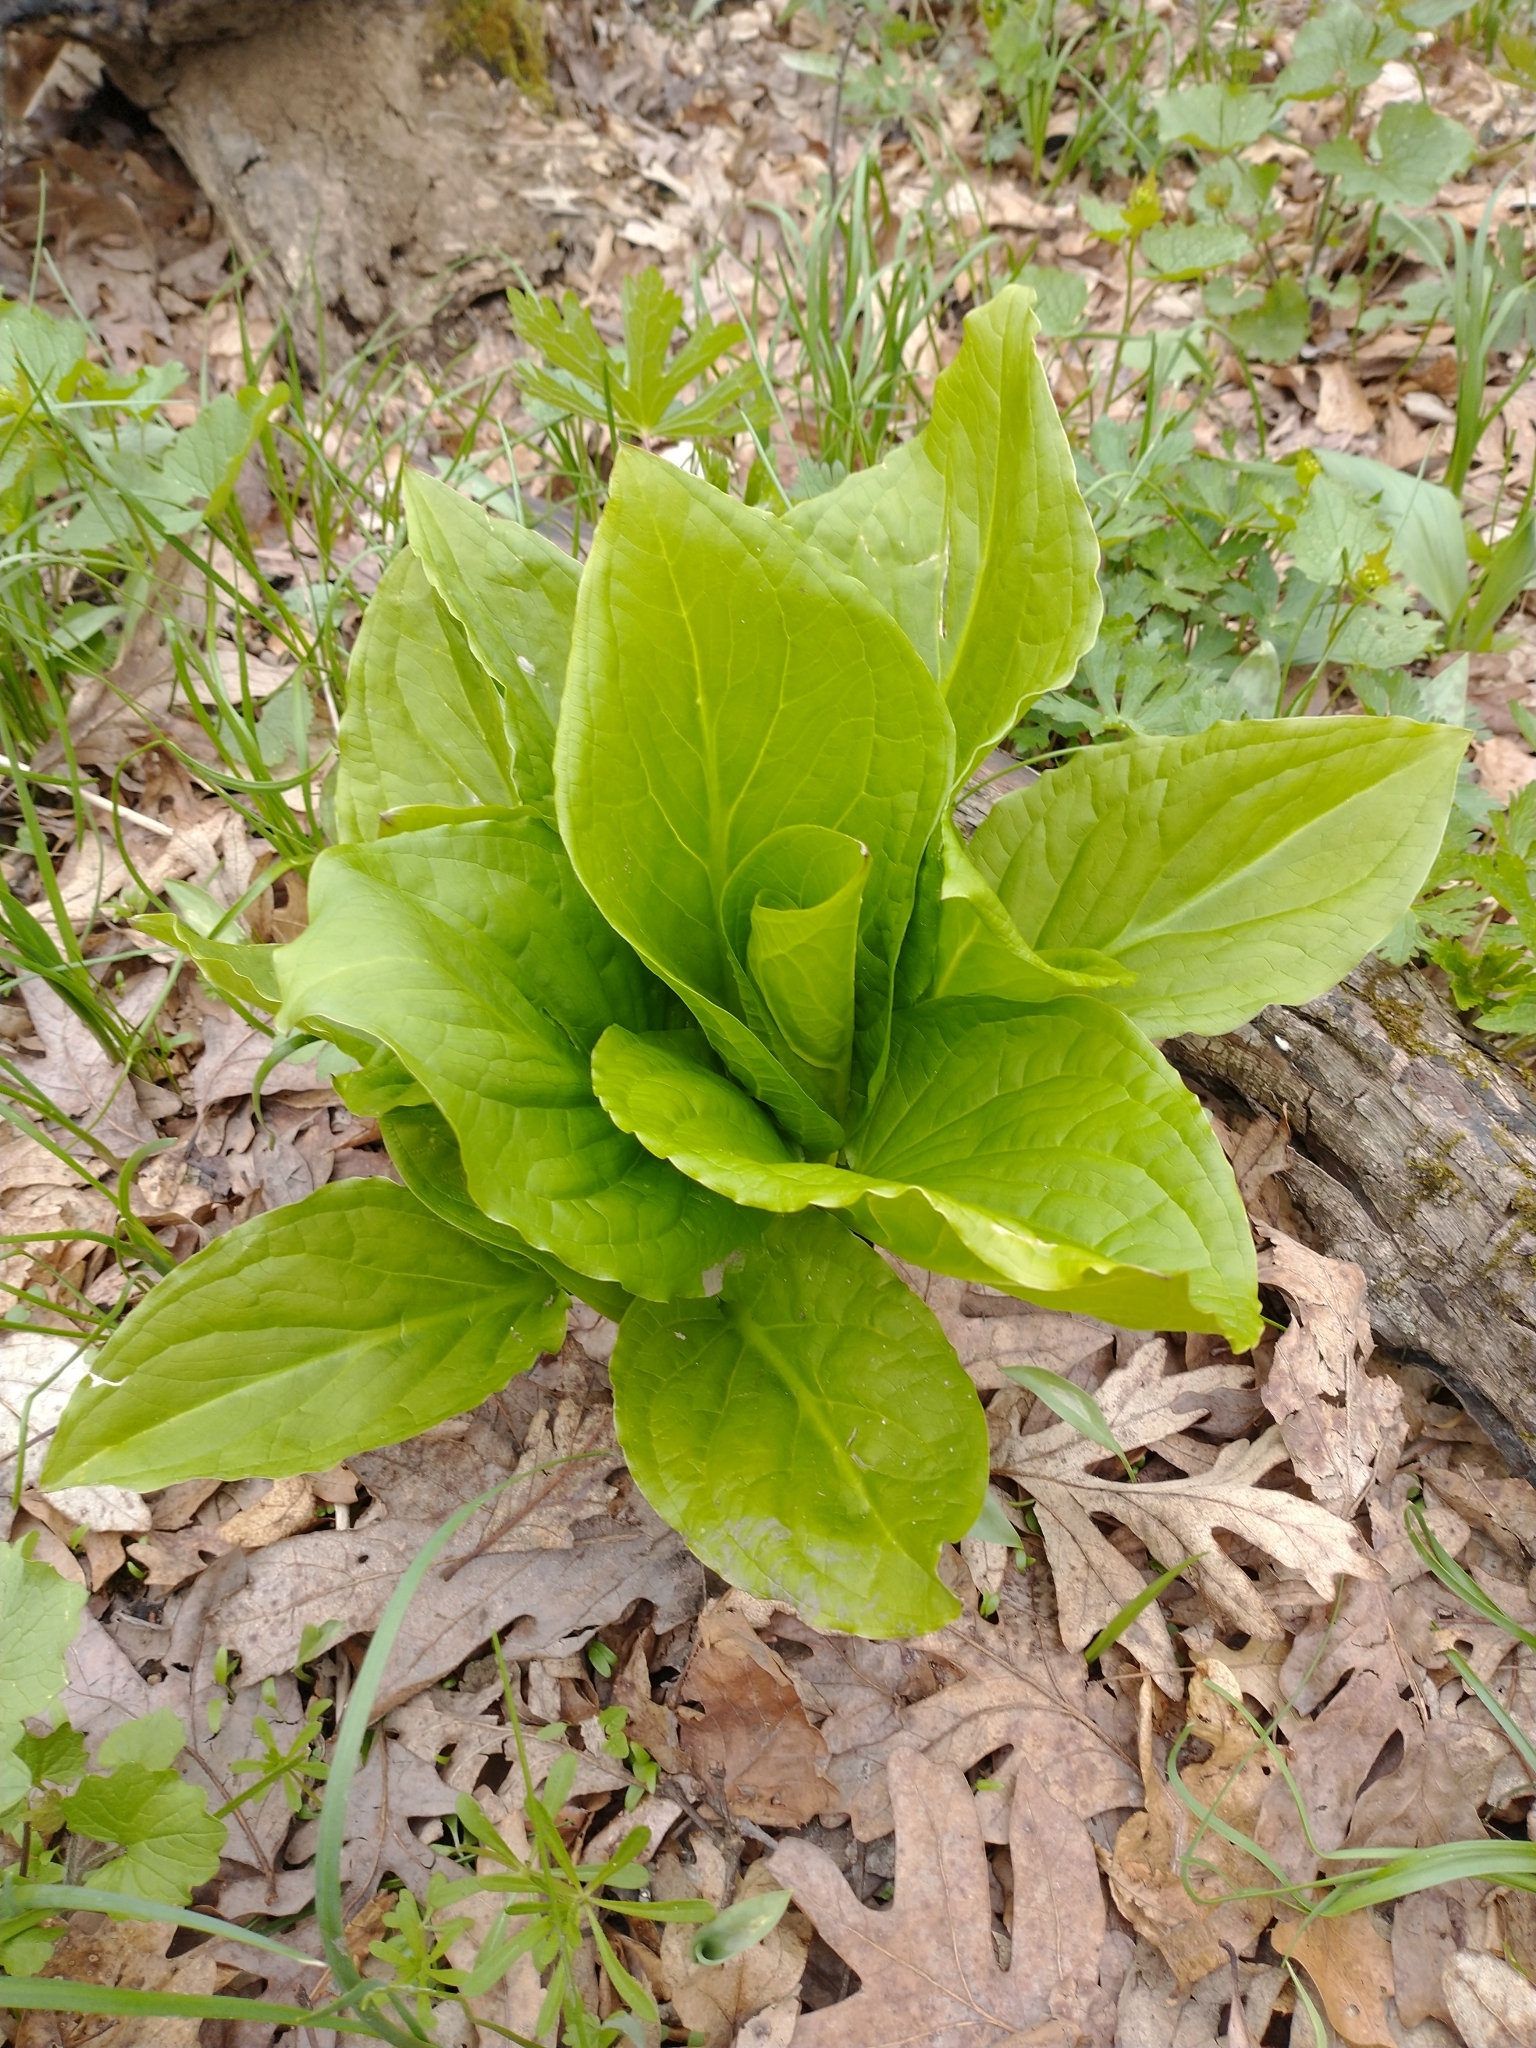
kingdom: Plantae
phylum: Tracheophyta
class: Liliopsida
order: Alismatales
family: Araceae
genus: Symplocarpus
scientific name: Symplocarpus foetidus
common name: Eastern skunk cabbage
